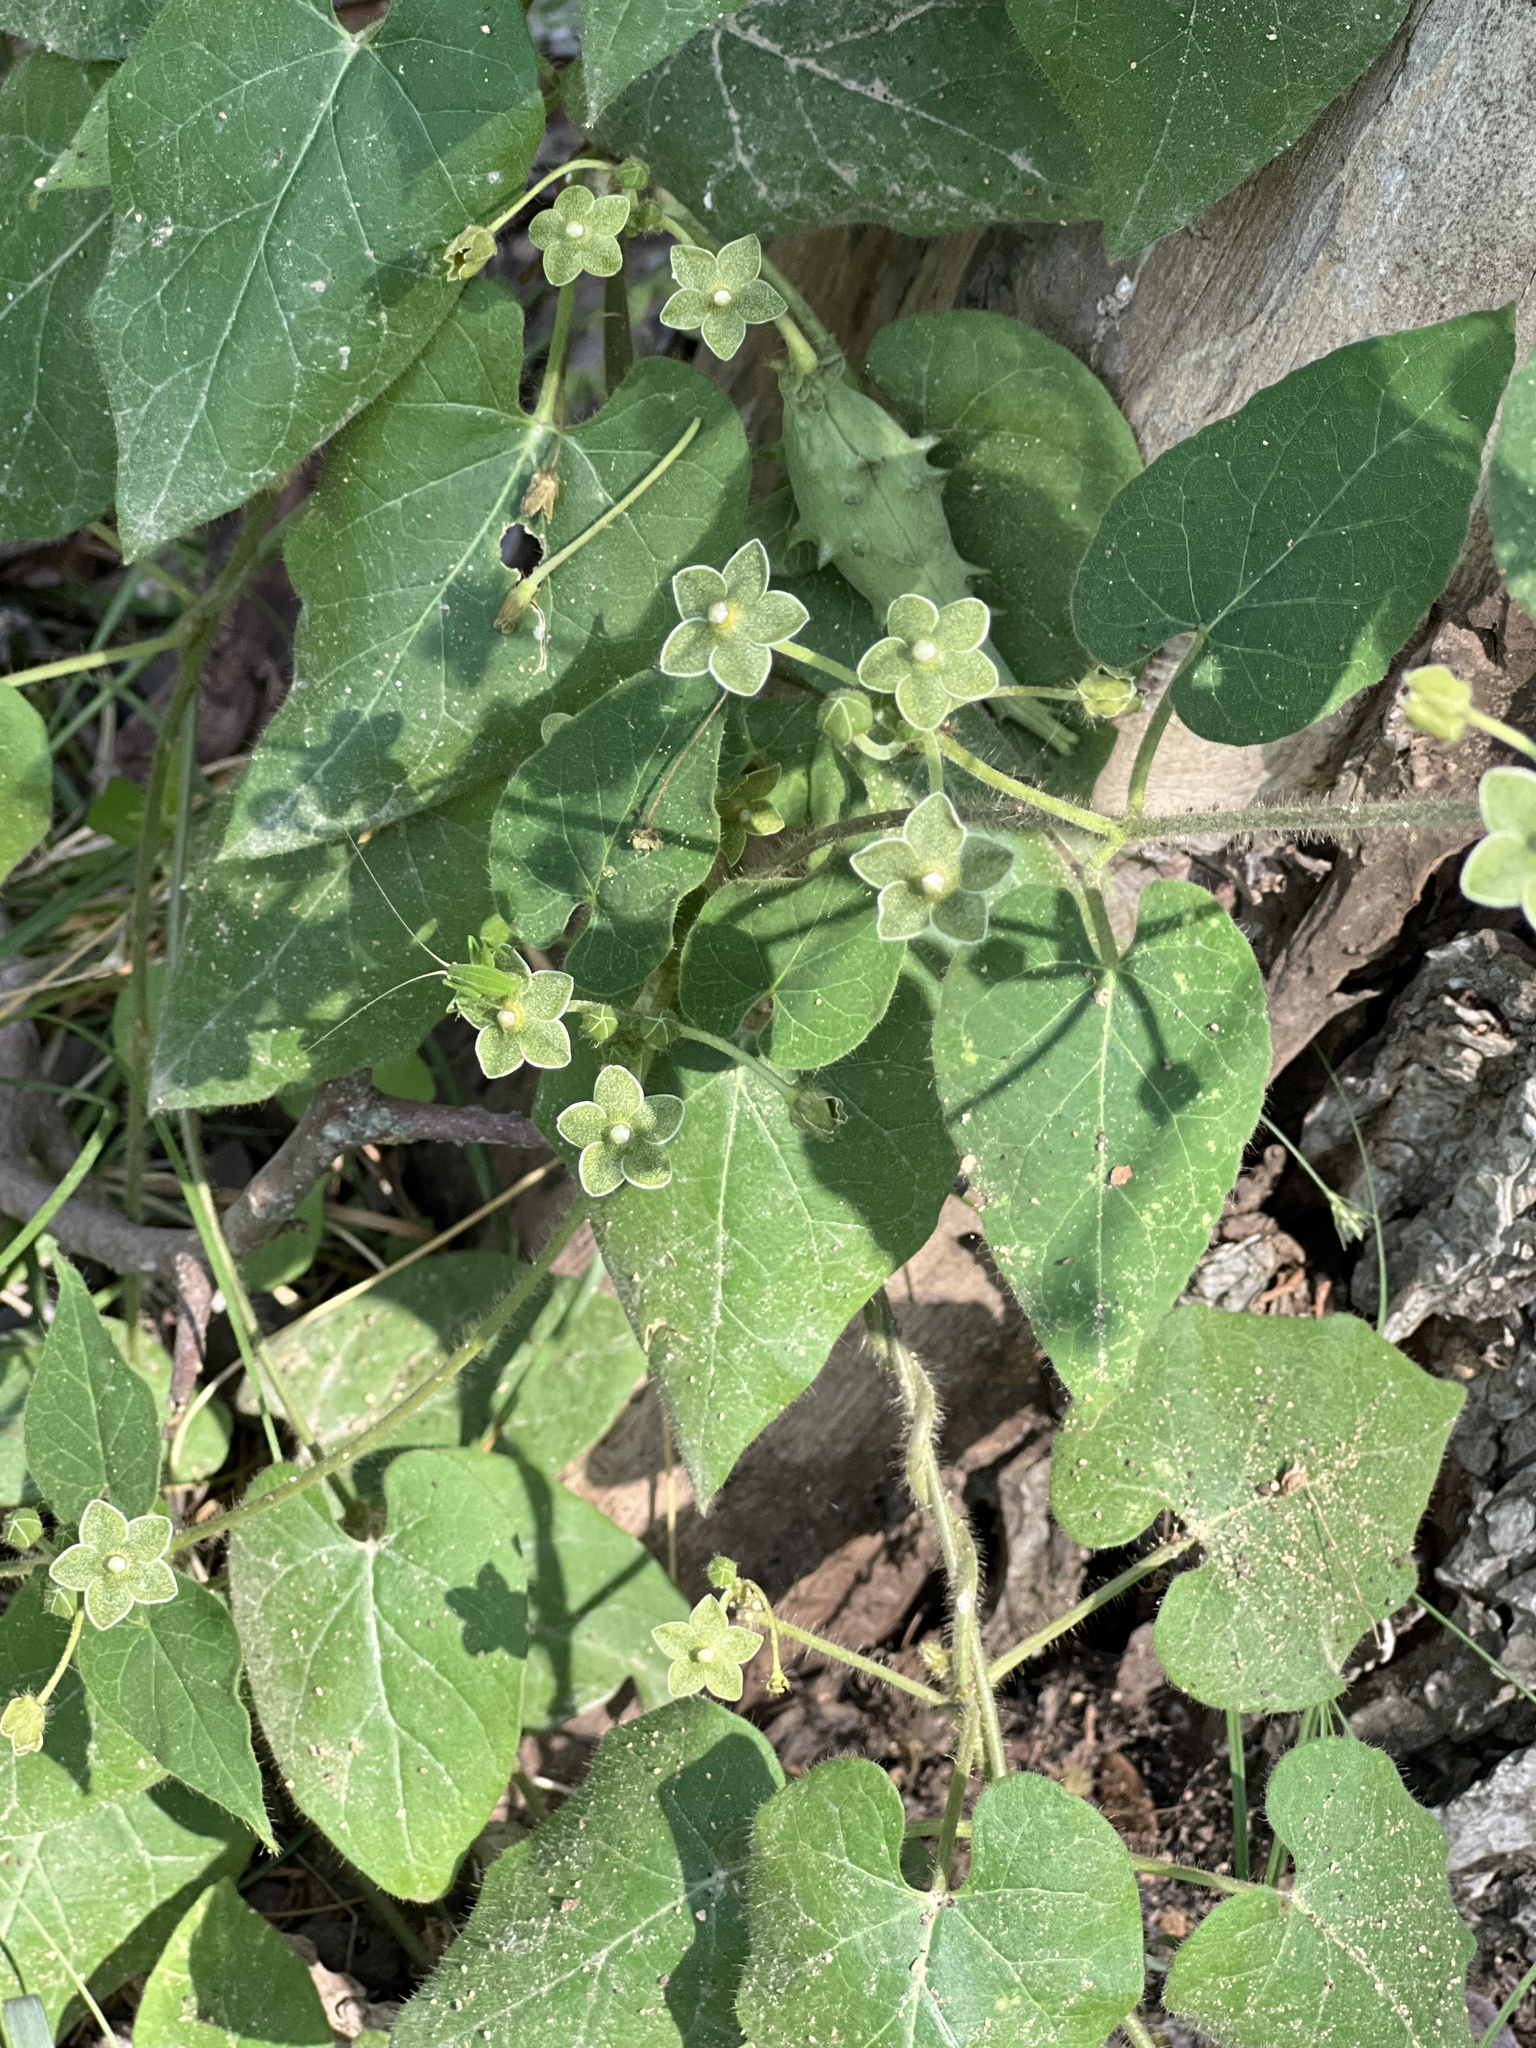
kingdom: Plantae
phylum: Tracheophyta
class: Magnoliopsida
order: Gentianales
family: Apocynaceae
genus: Dictyanthus
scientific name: Dictyanthus reticulatus
